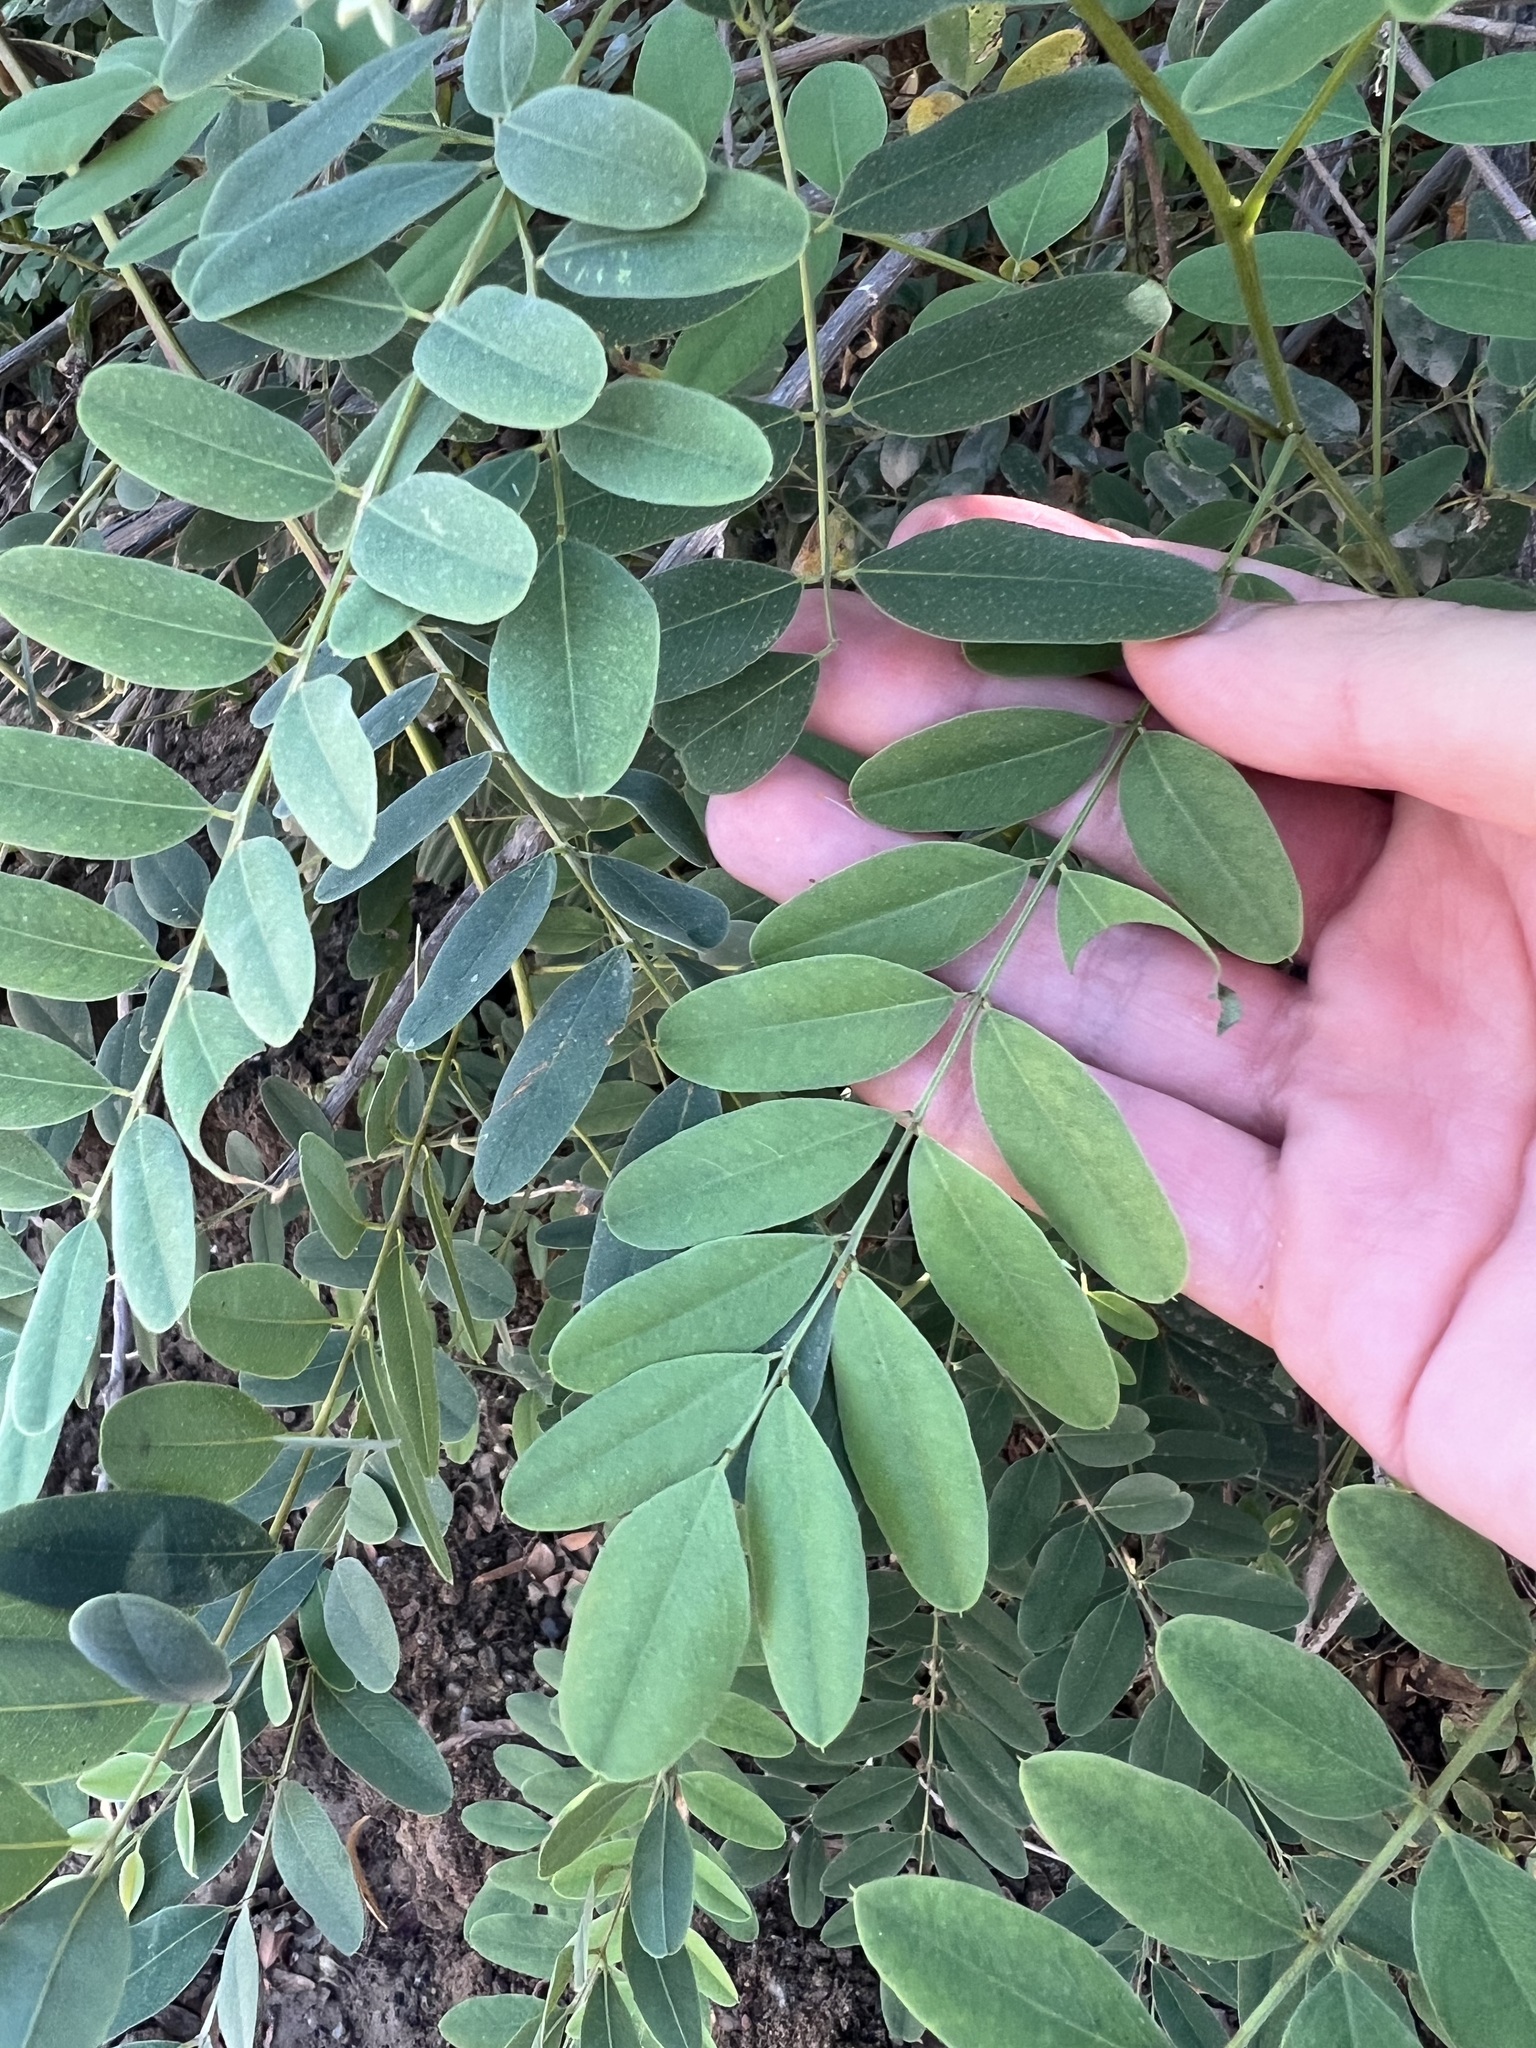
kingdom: Plantae
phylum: Tracheophyta
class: Magnoliopsida
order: Fabales
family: Fabaceae
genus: Amorpha
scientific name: Amorpha fruticosa
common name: False indigo
